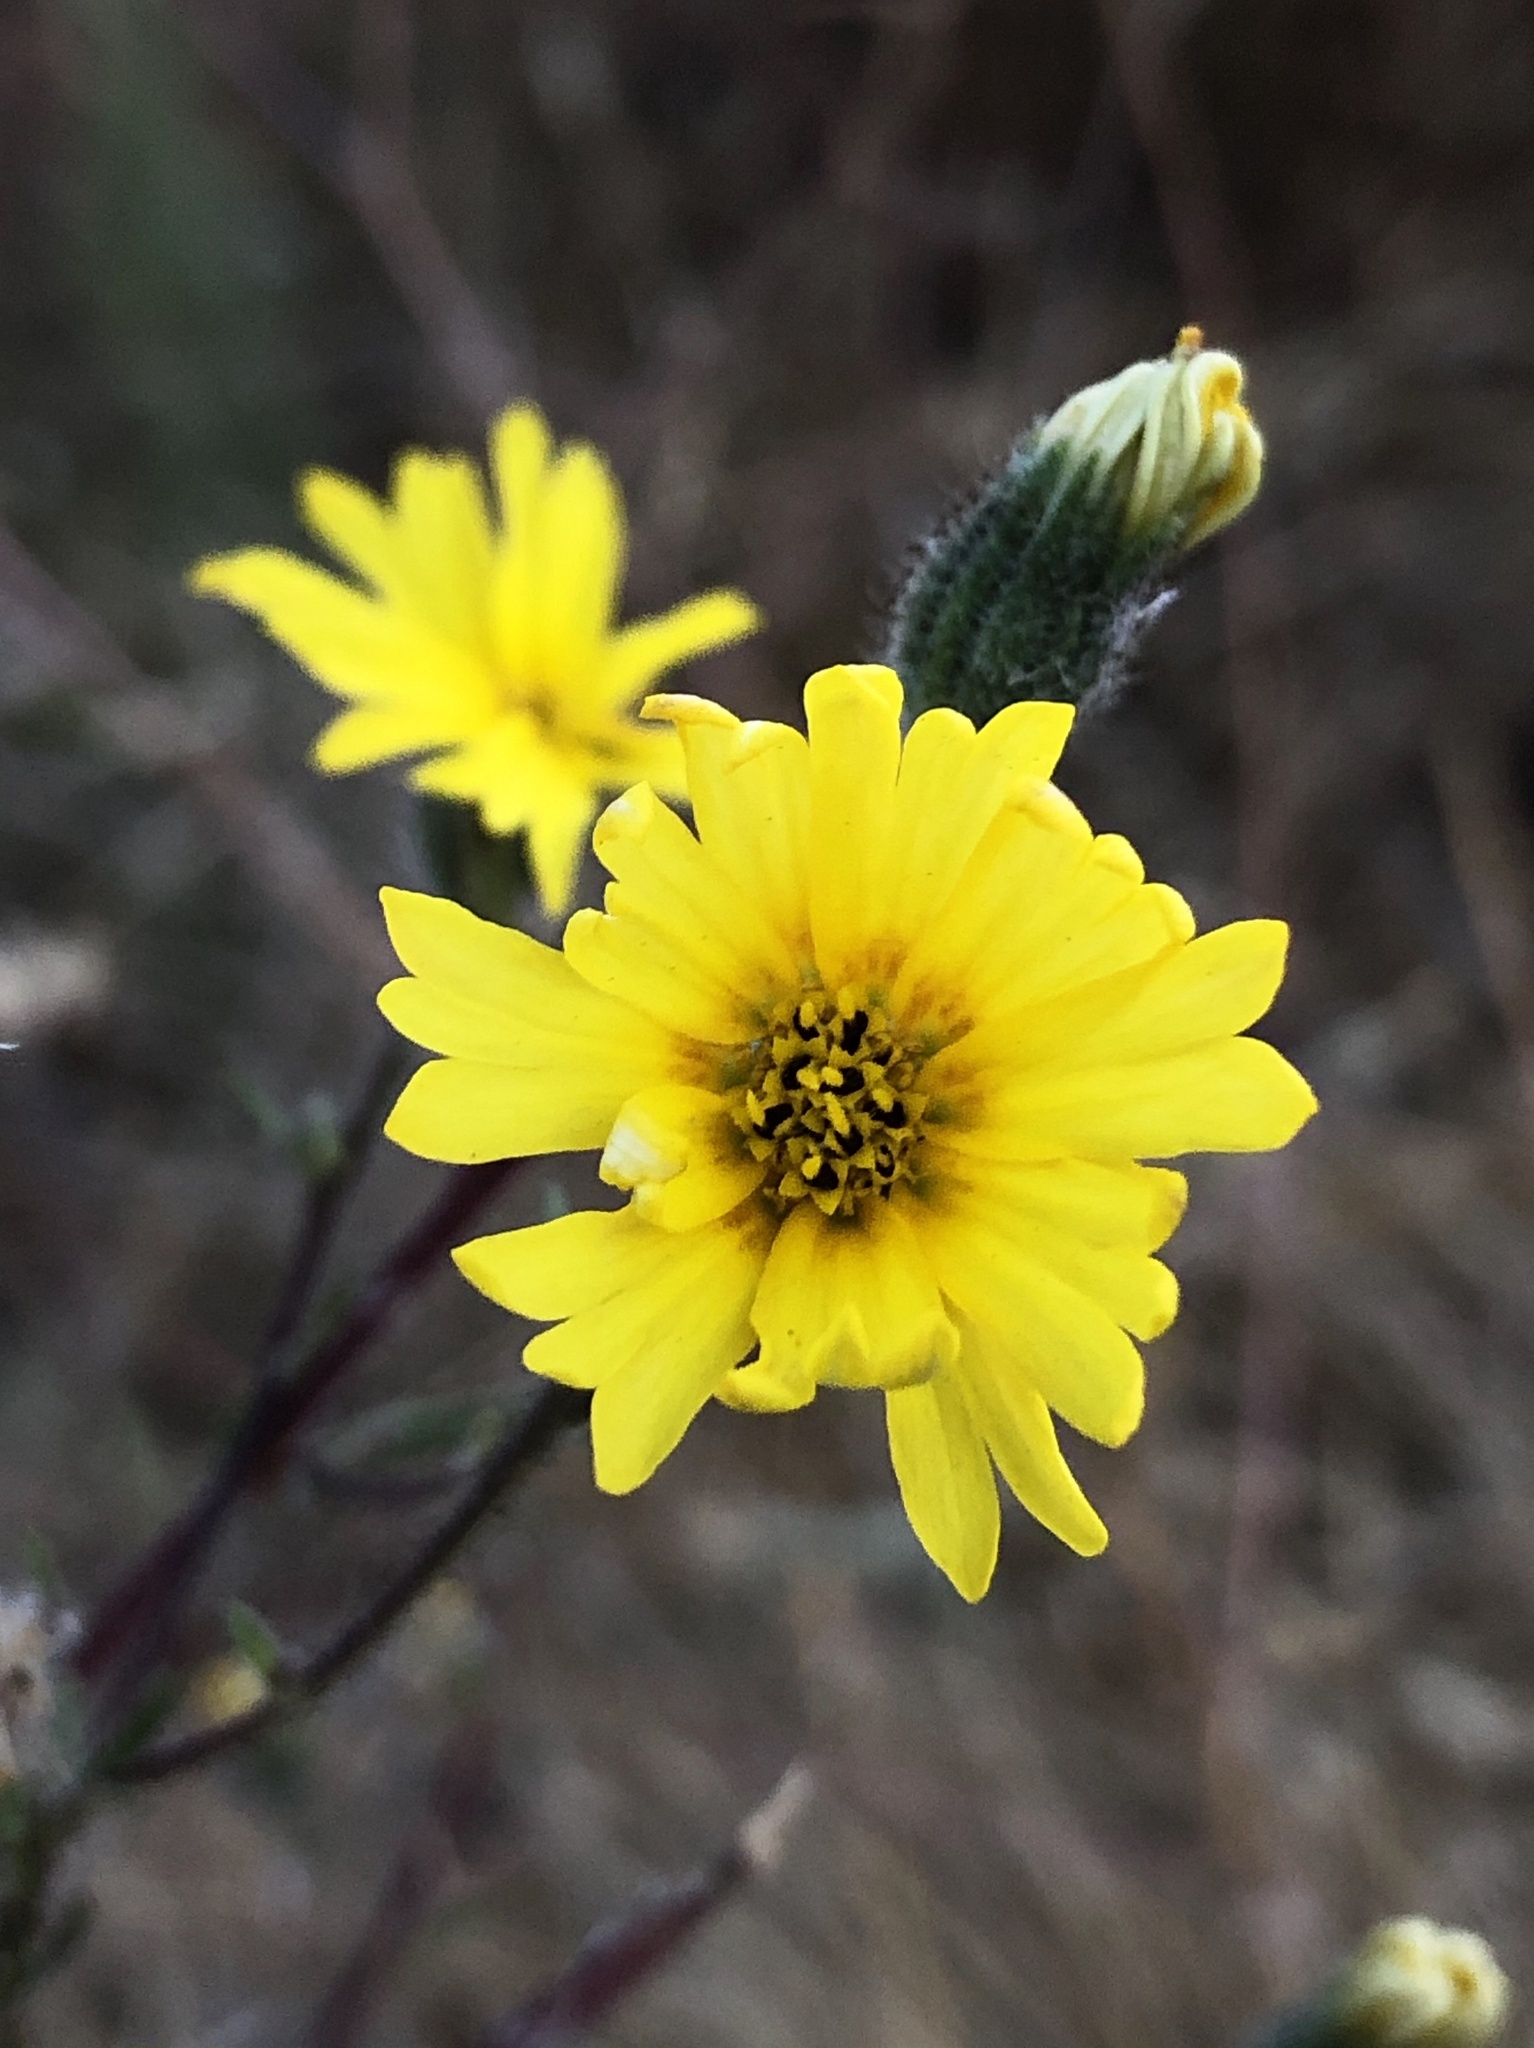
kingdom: Plantae
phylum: Tracheophyta
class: Magnoliopsida
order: Asterales
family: Asteraceae
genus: Madia
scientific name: Madia elegans
